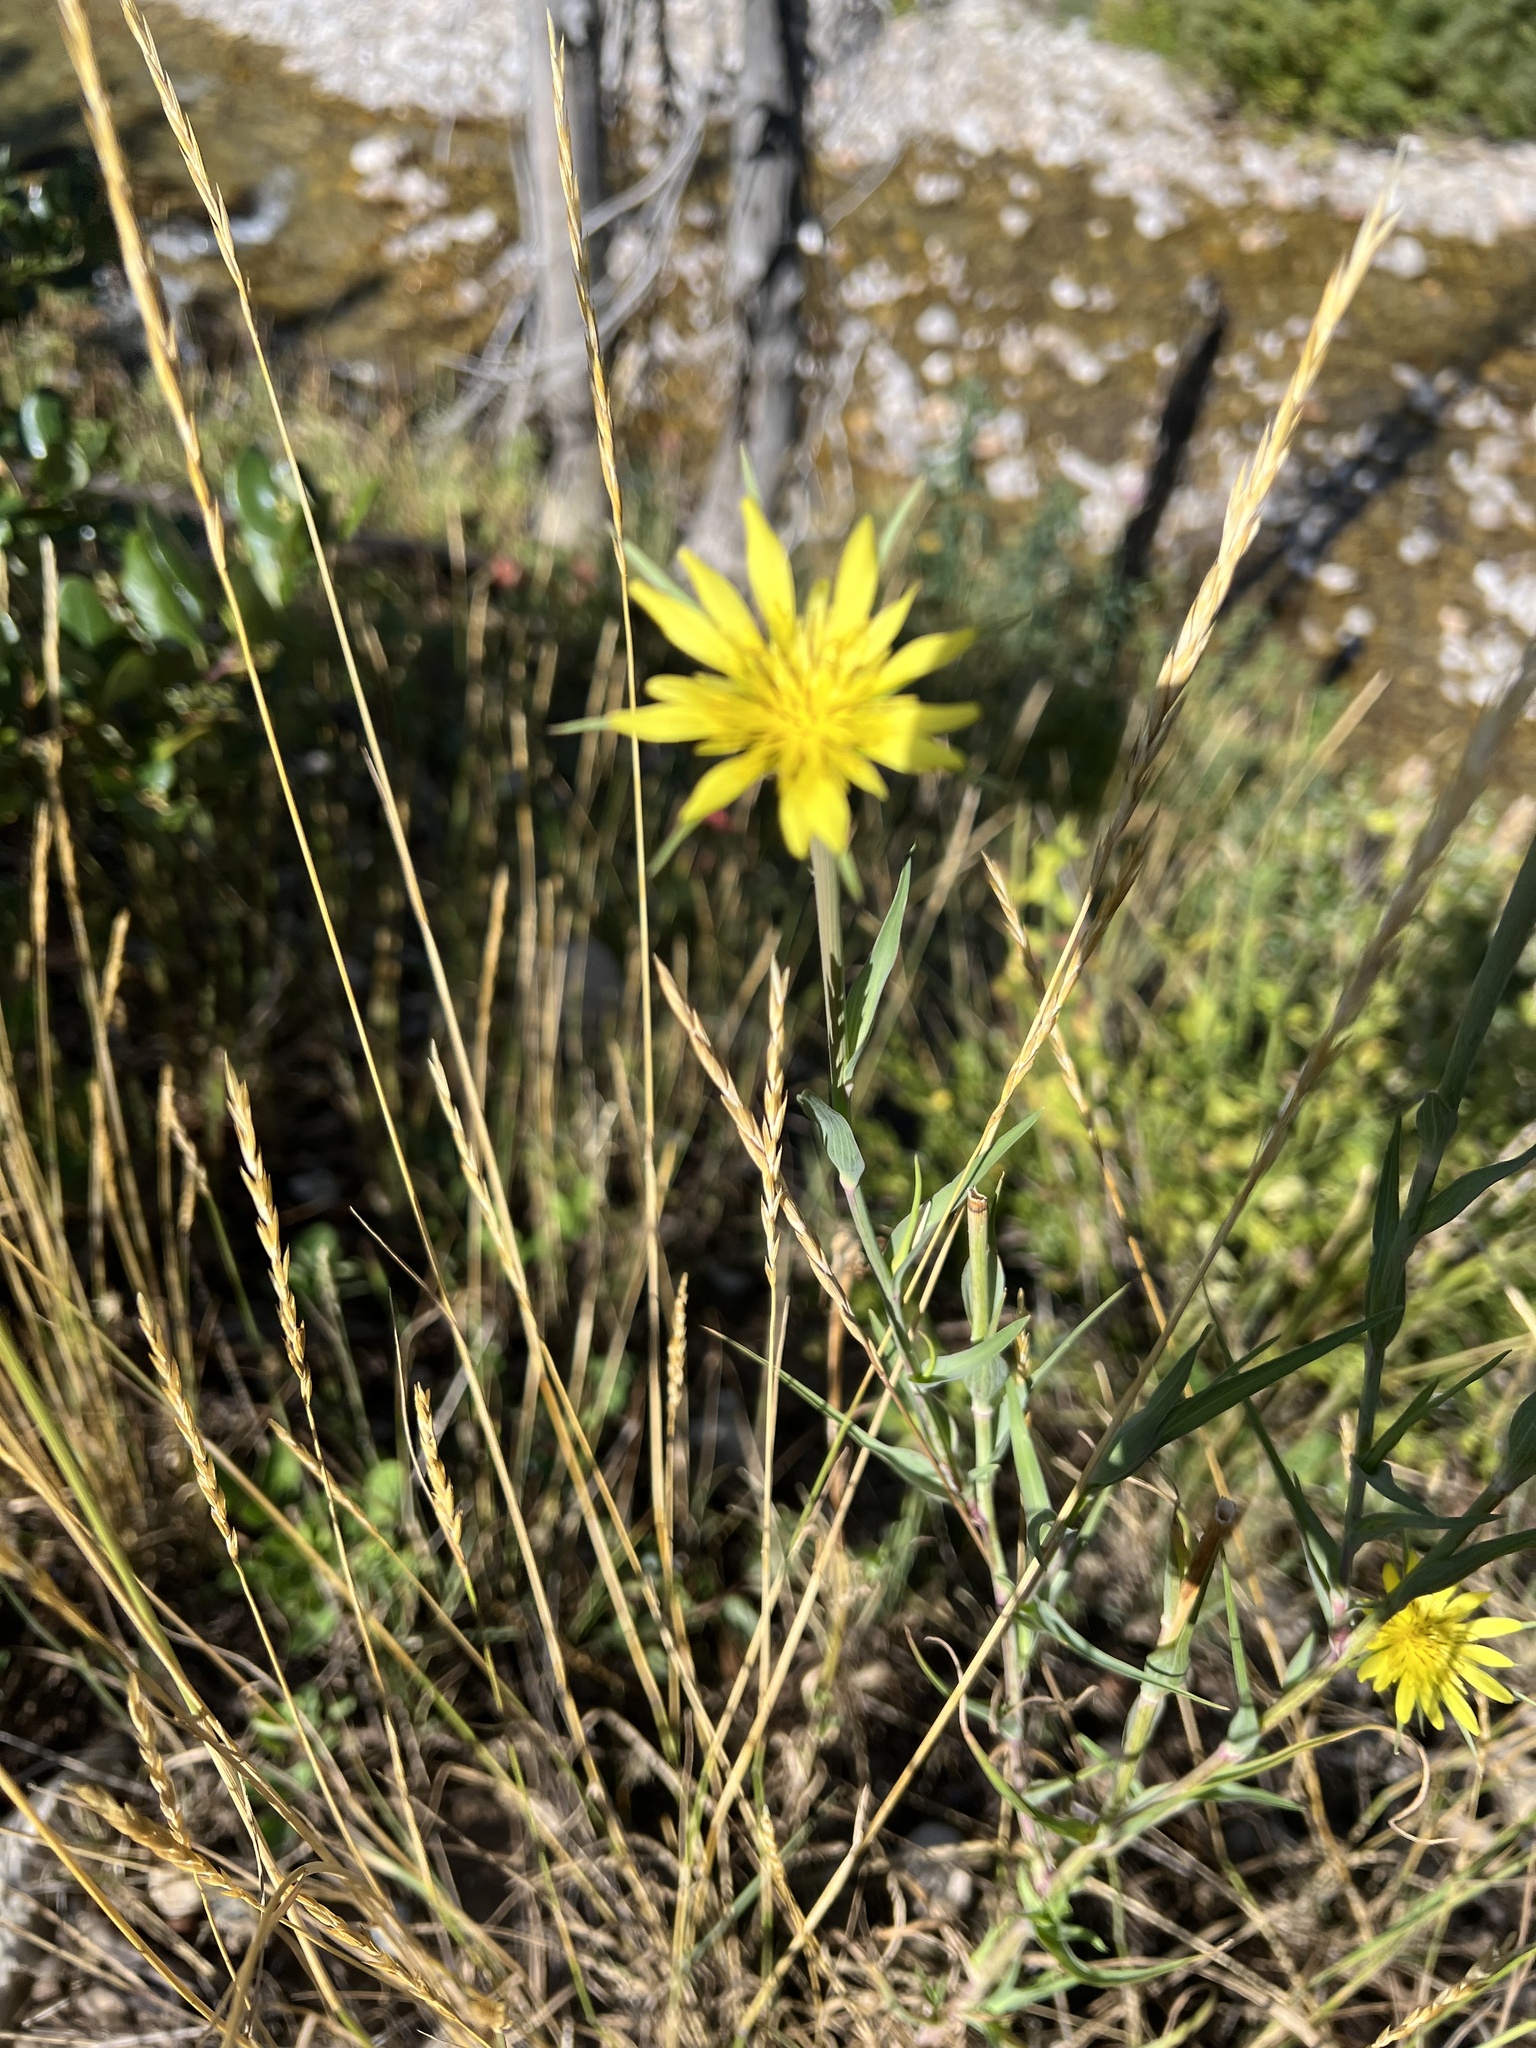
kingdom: Plantae
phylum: Tracheophyta
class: Magnoliopsida
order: Asterales
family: Asteraceae
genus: Tragopogon
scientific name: Tragopogon dubius
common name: Yellow salsify
